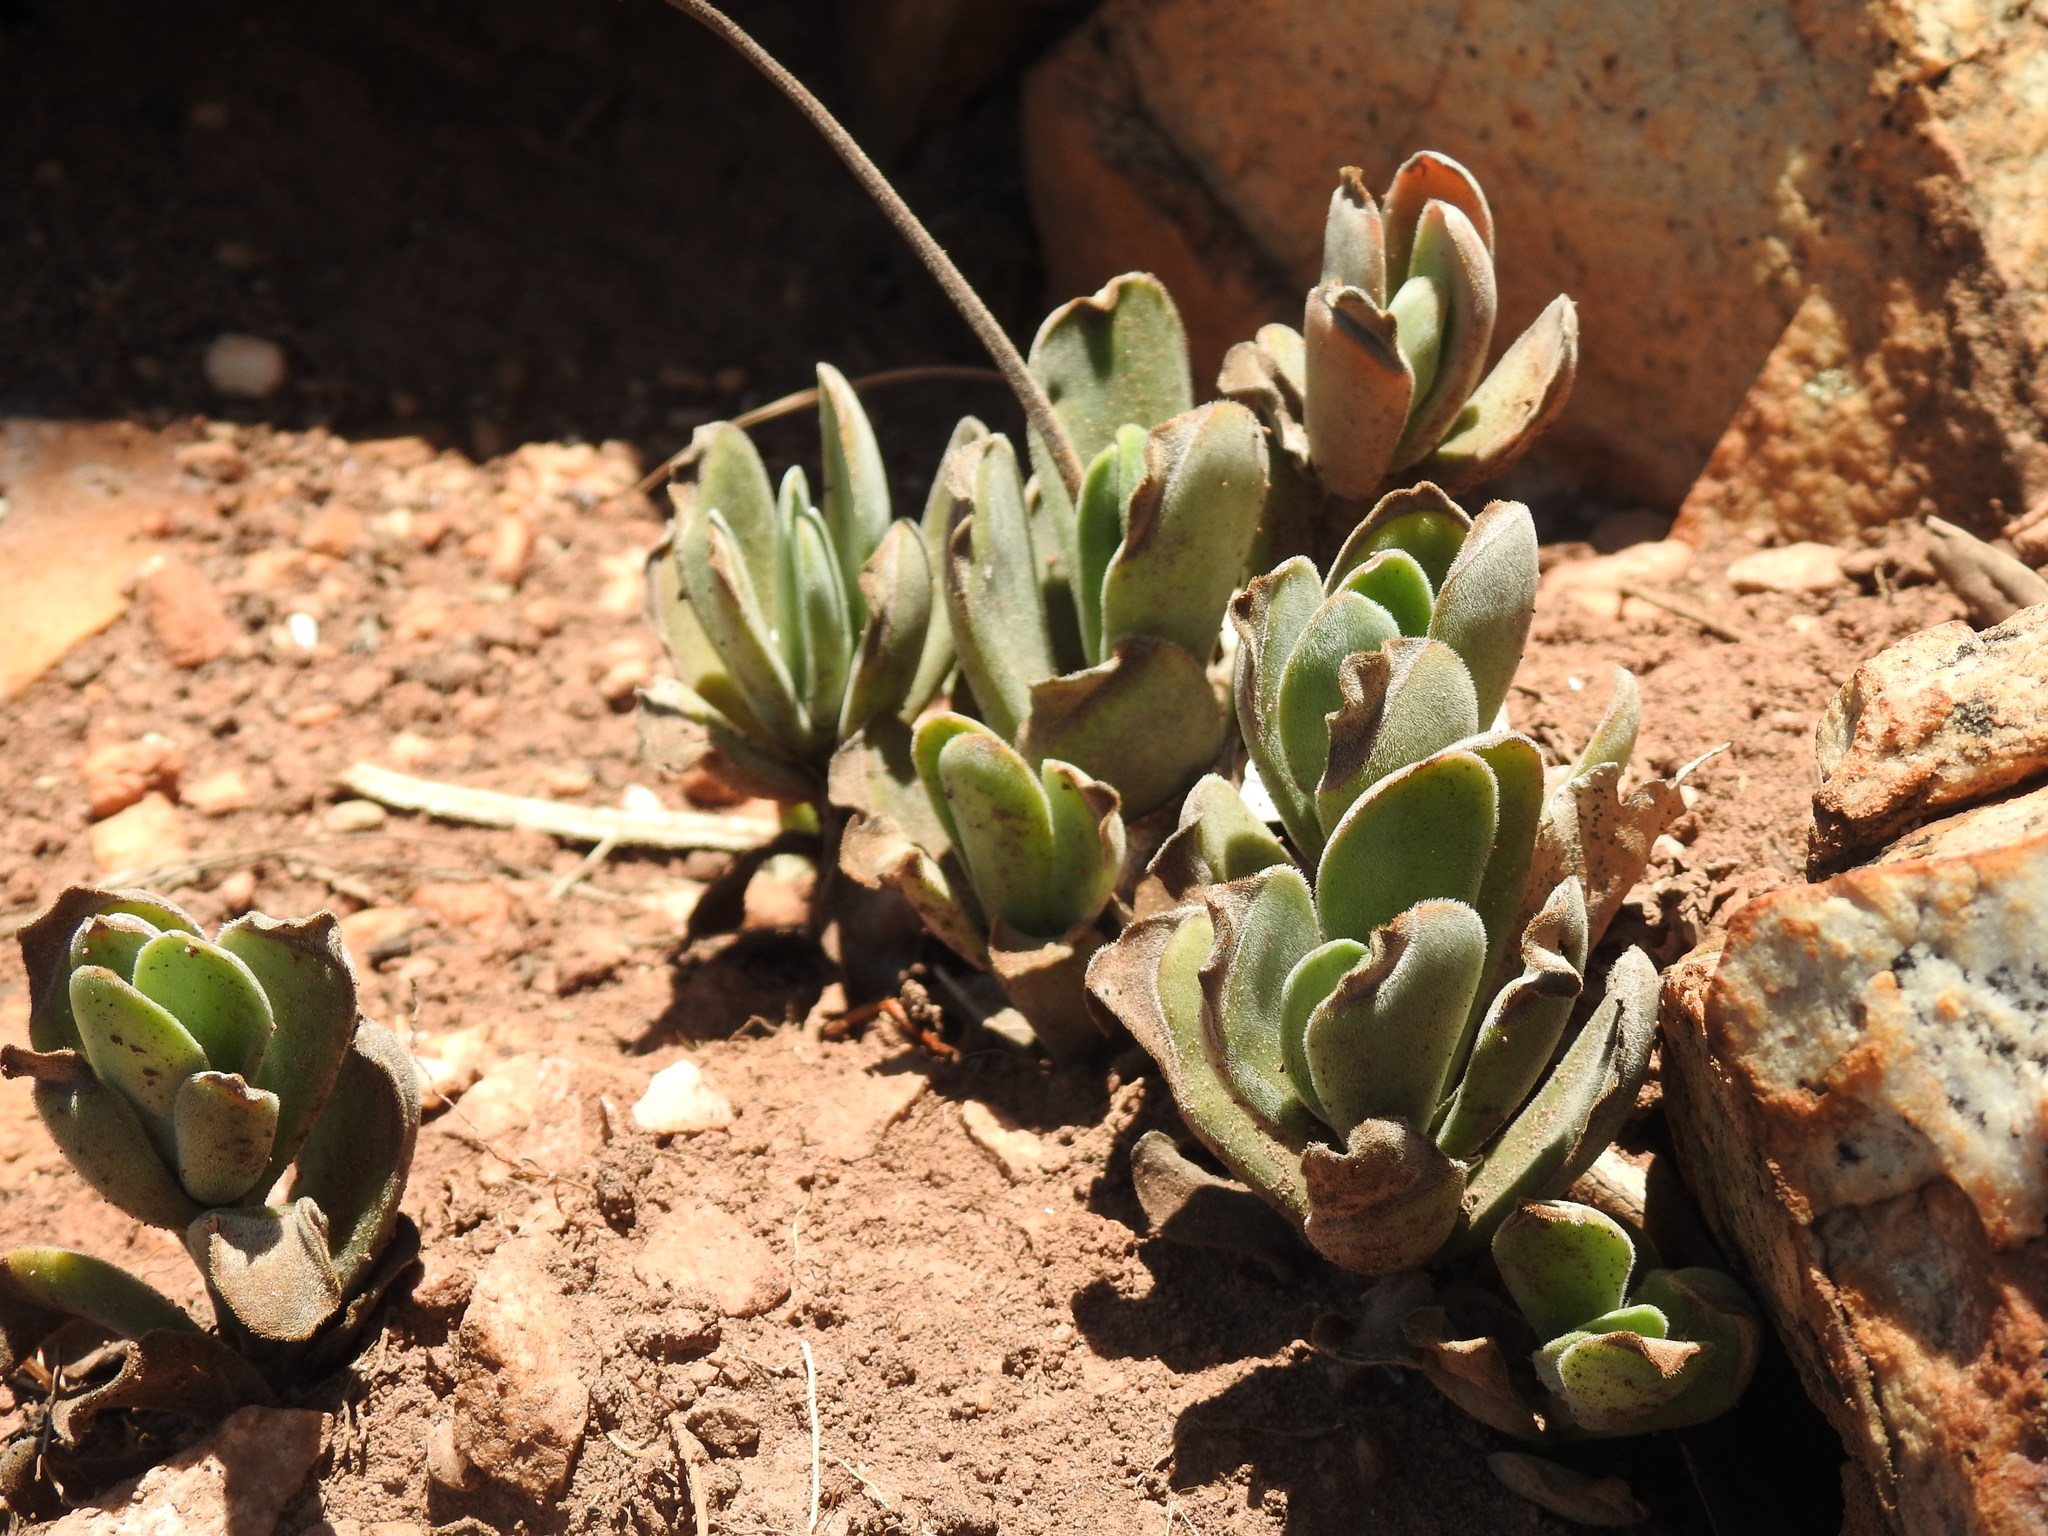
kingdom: Plantae
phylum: Tracheophyta
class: Magnoliopsida
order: Saxifragales
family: Crassulaceae
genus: Crassula
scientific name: Crassula globularioides
